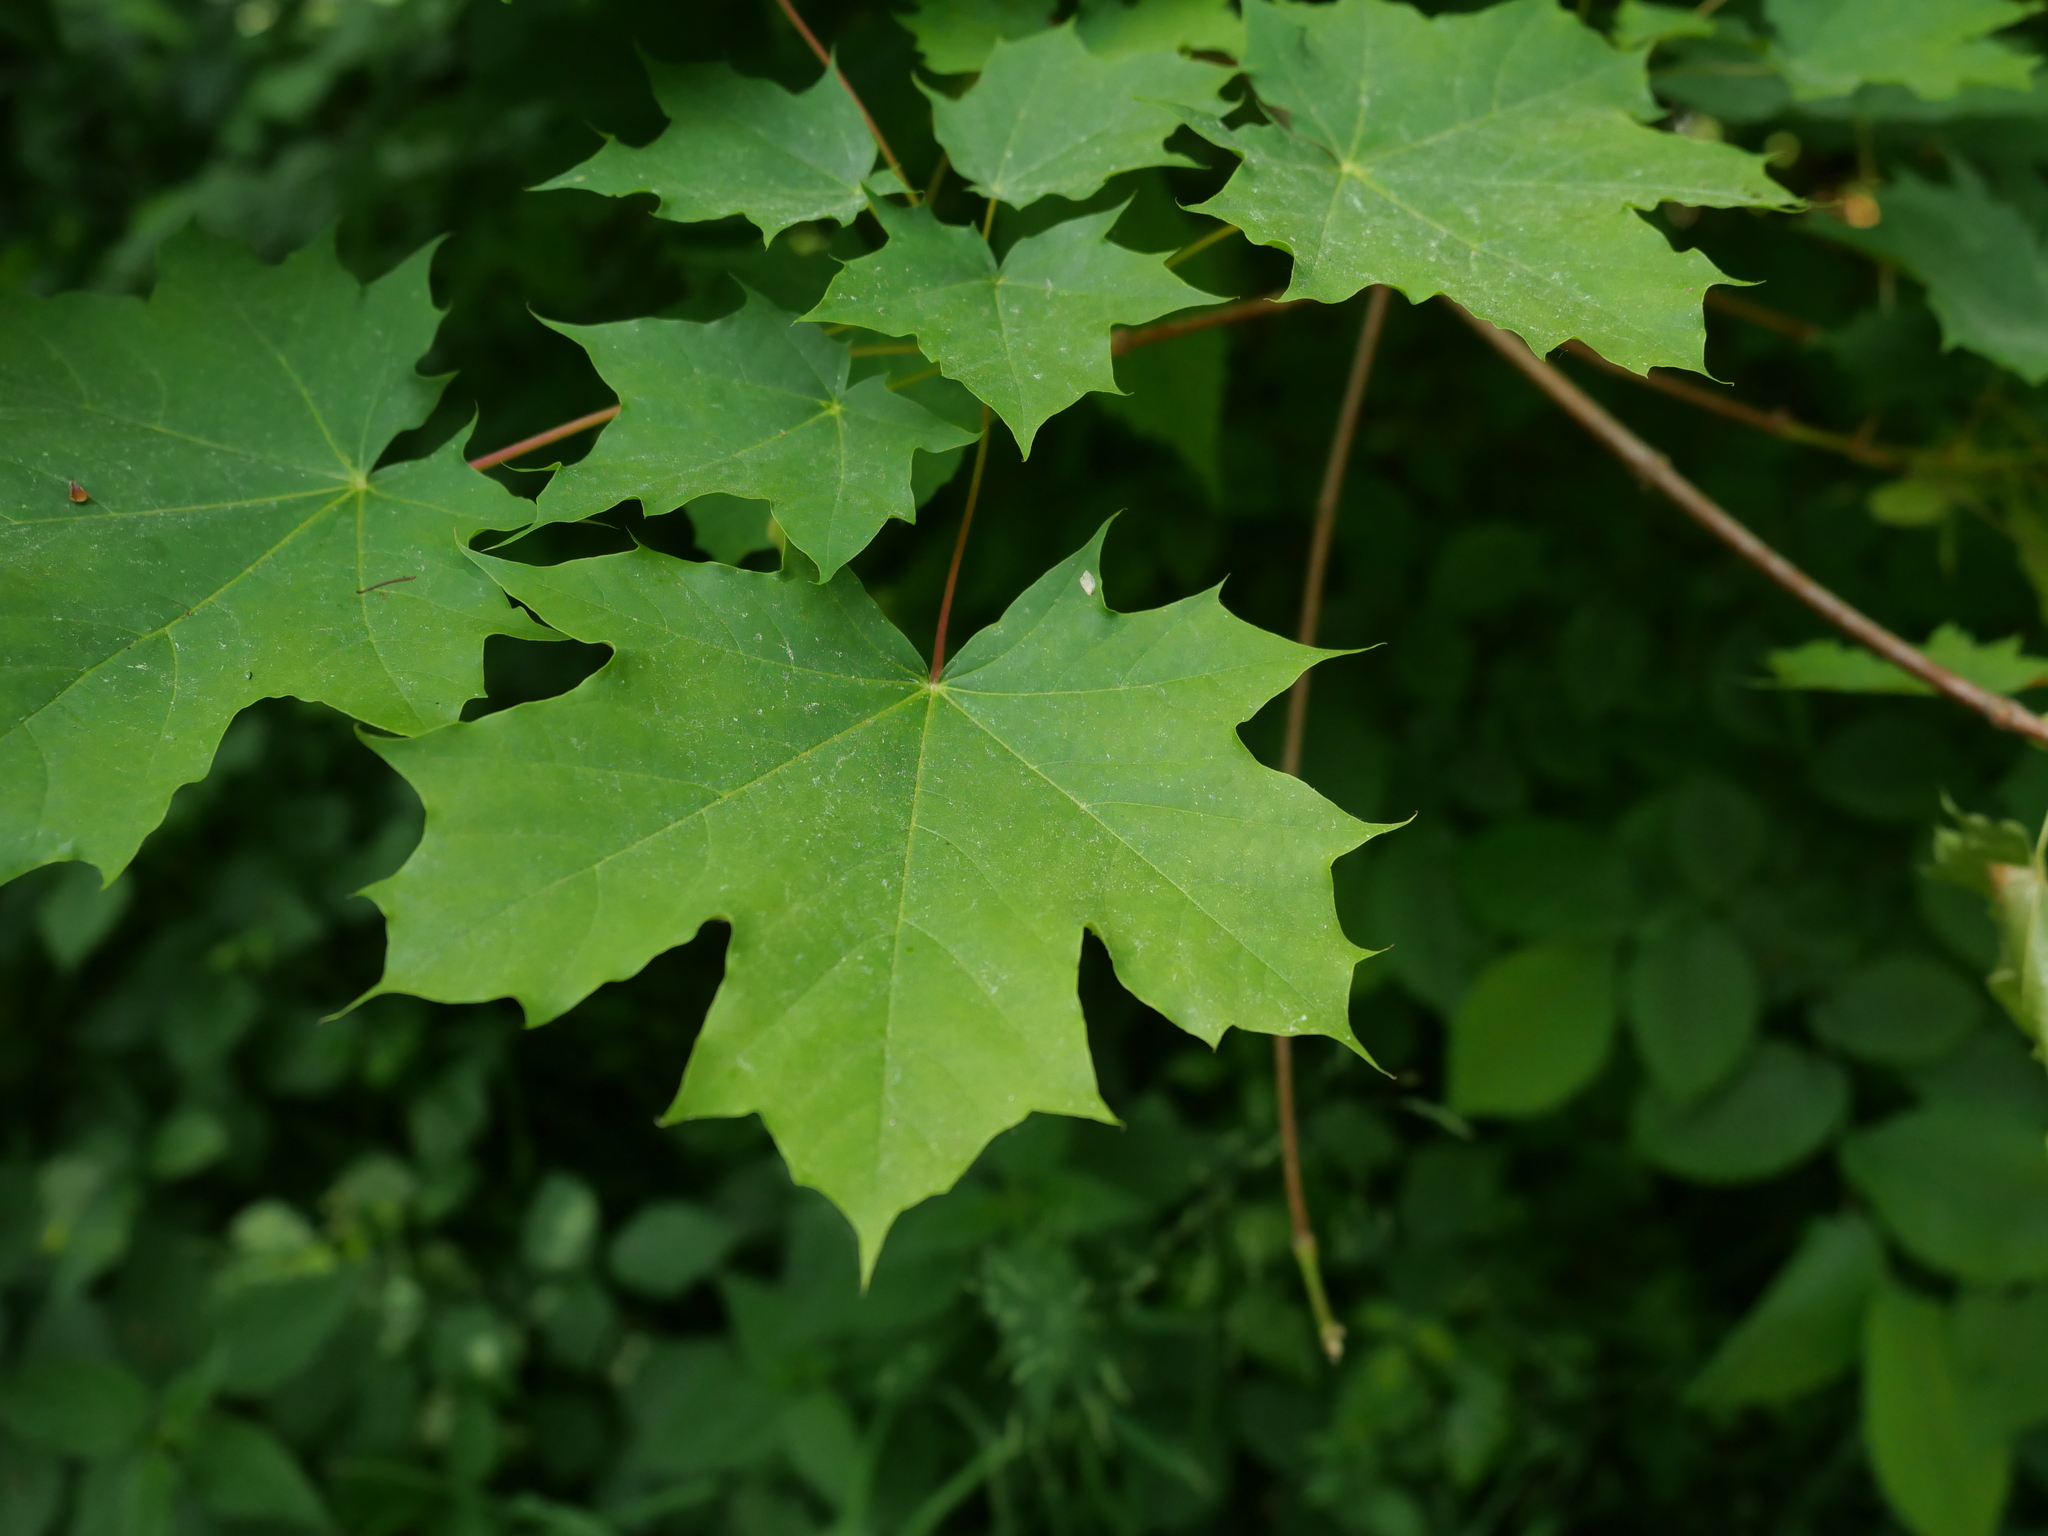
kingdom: Plantae
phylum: Tracheophyta
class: Magnoliopsida
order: Sapindales
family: Sapindaceae
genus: Acer
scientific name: Acer platanoides
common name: Norway maple
